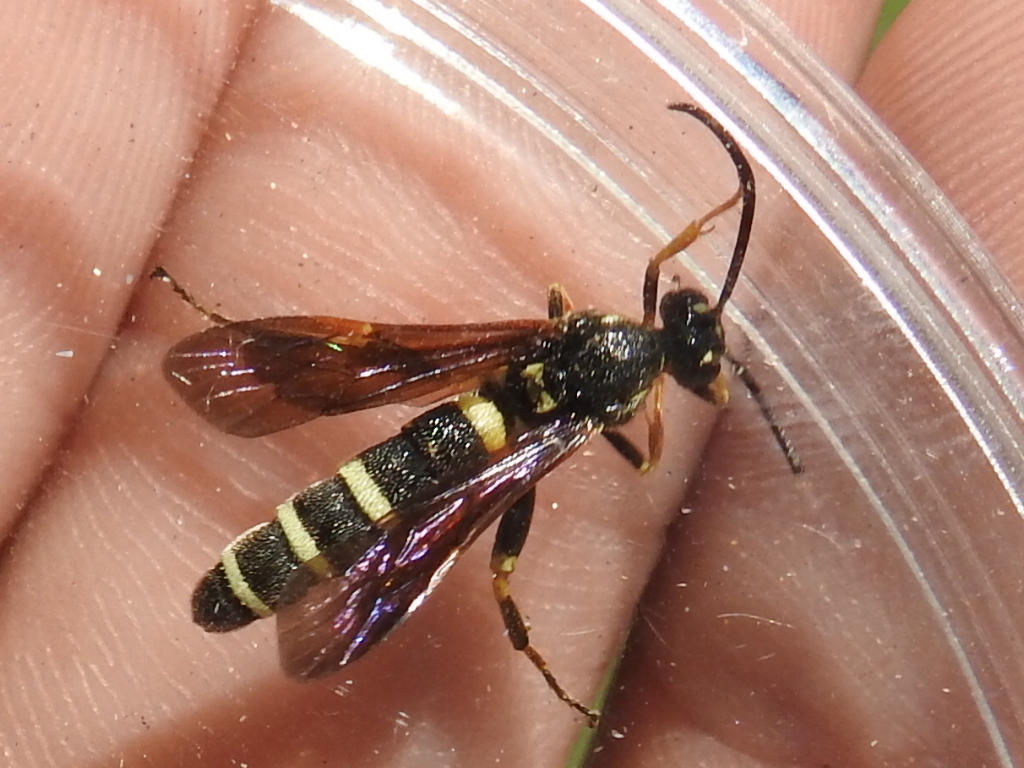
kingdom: Animalia
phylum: Arthropoda
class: Insecta
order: Hymenoptera
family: Ichneumonidae
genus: Metopius
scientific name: Metopius
